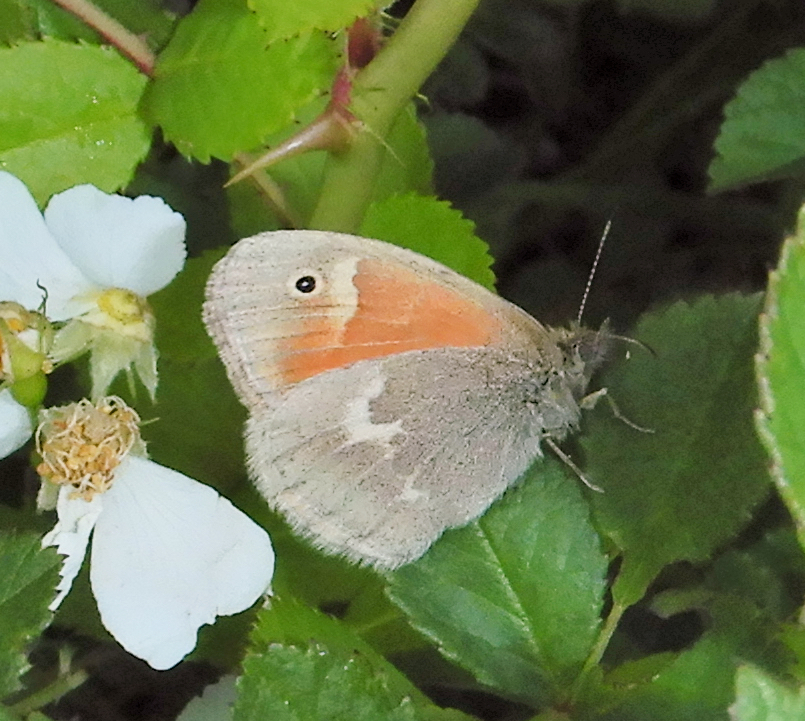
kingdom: Animalia
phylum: Arthropoda
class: Insecta
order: Lepidoptera
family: Nymphalidae
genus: Coenonympha
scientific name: Coenonympha california
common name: Common ringlet
